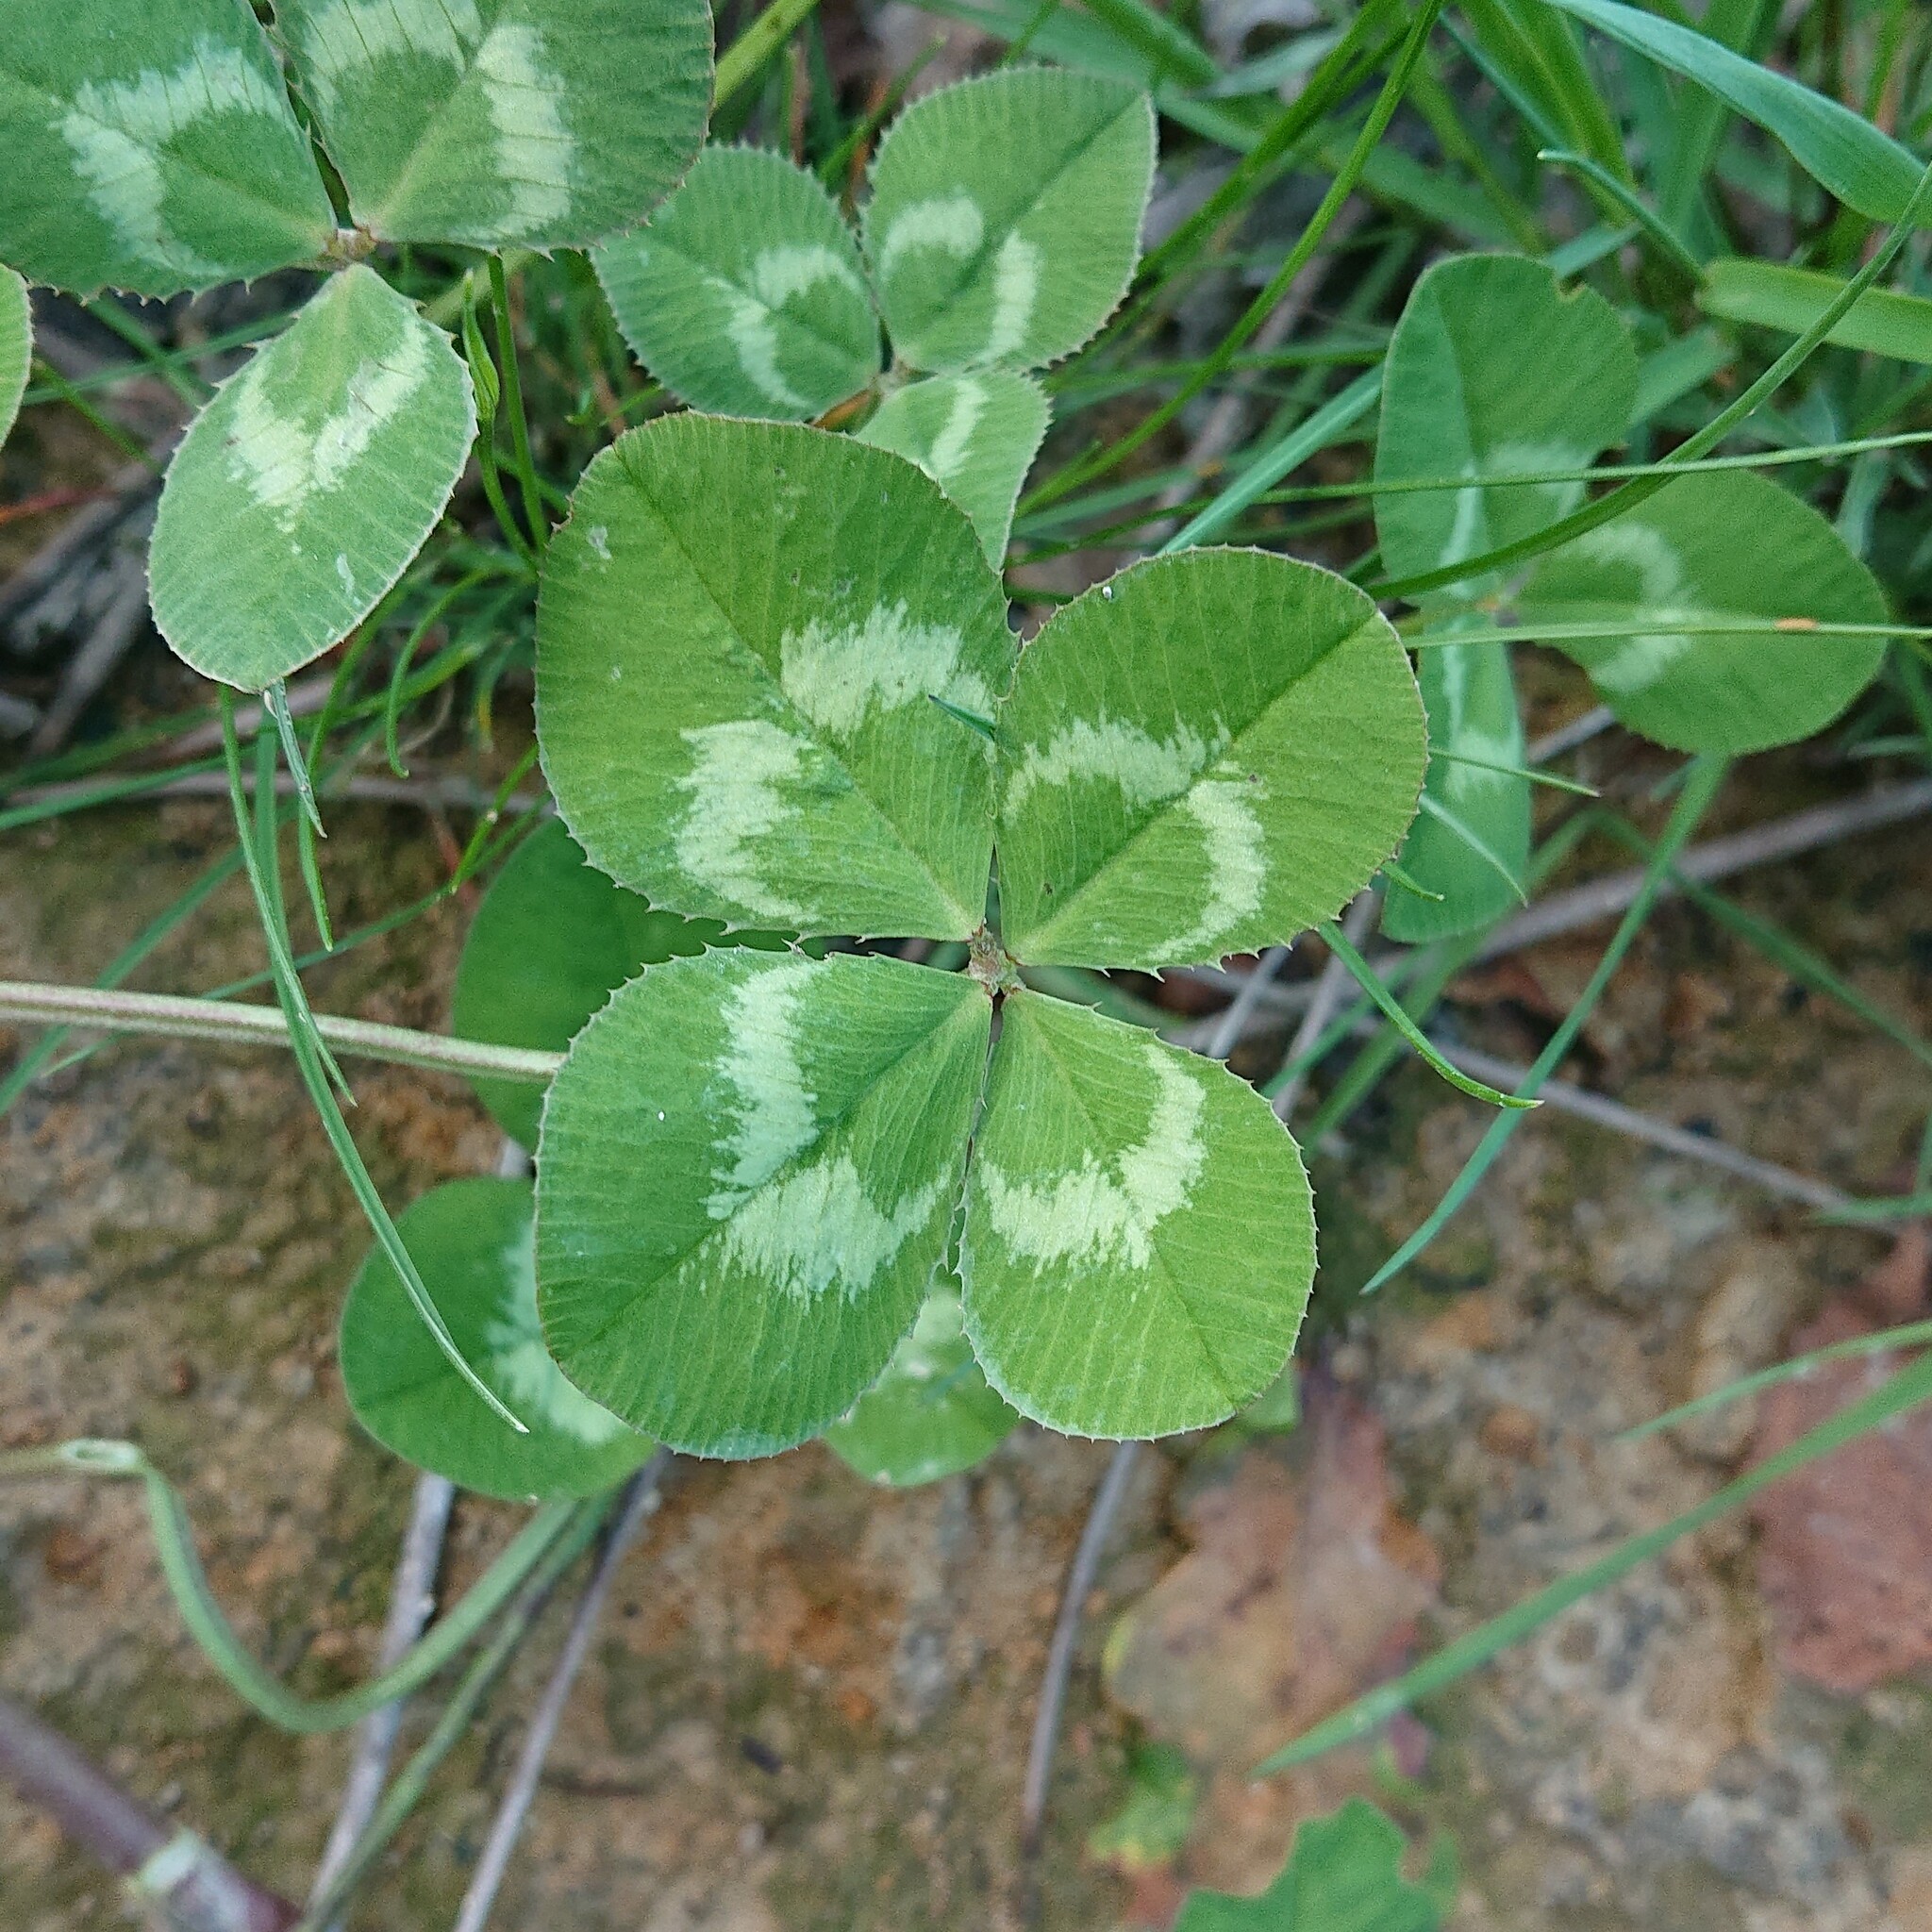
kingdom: Plantae
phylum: Tracheophyta
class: Magnoliopsida
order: Fabales
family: Fabaceae
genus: Trifolium
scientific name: Trifolium repens
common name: White clover
